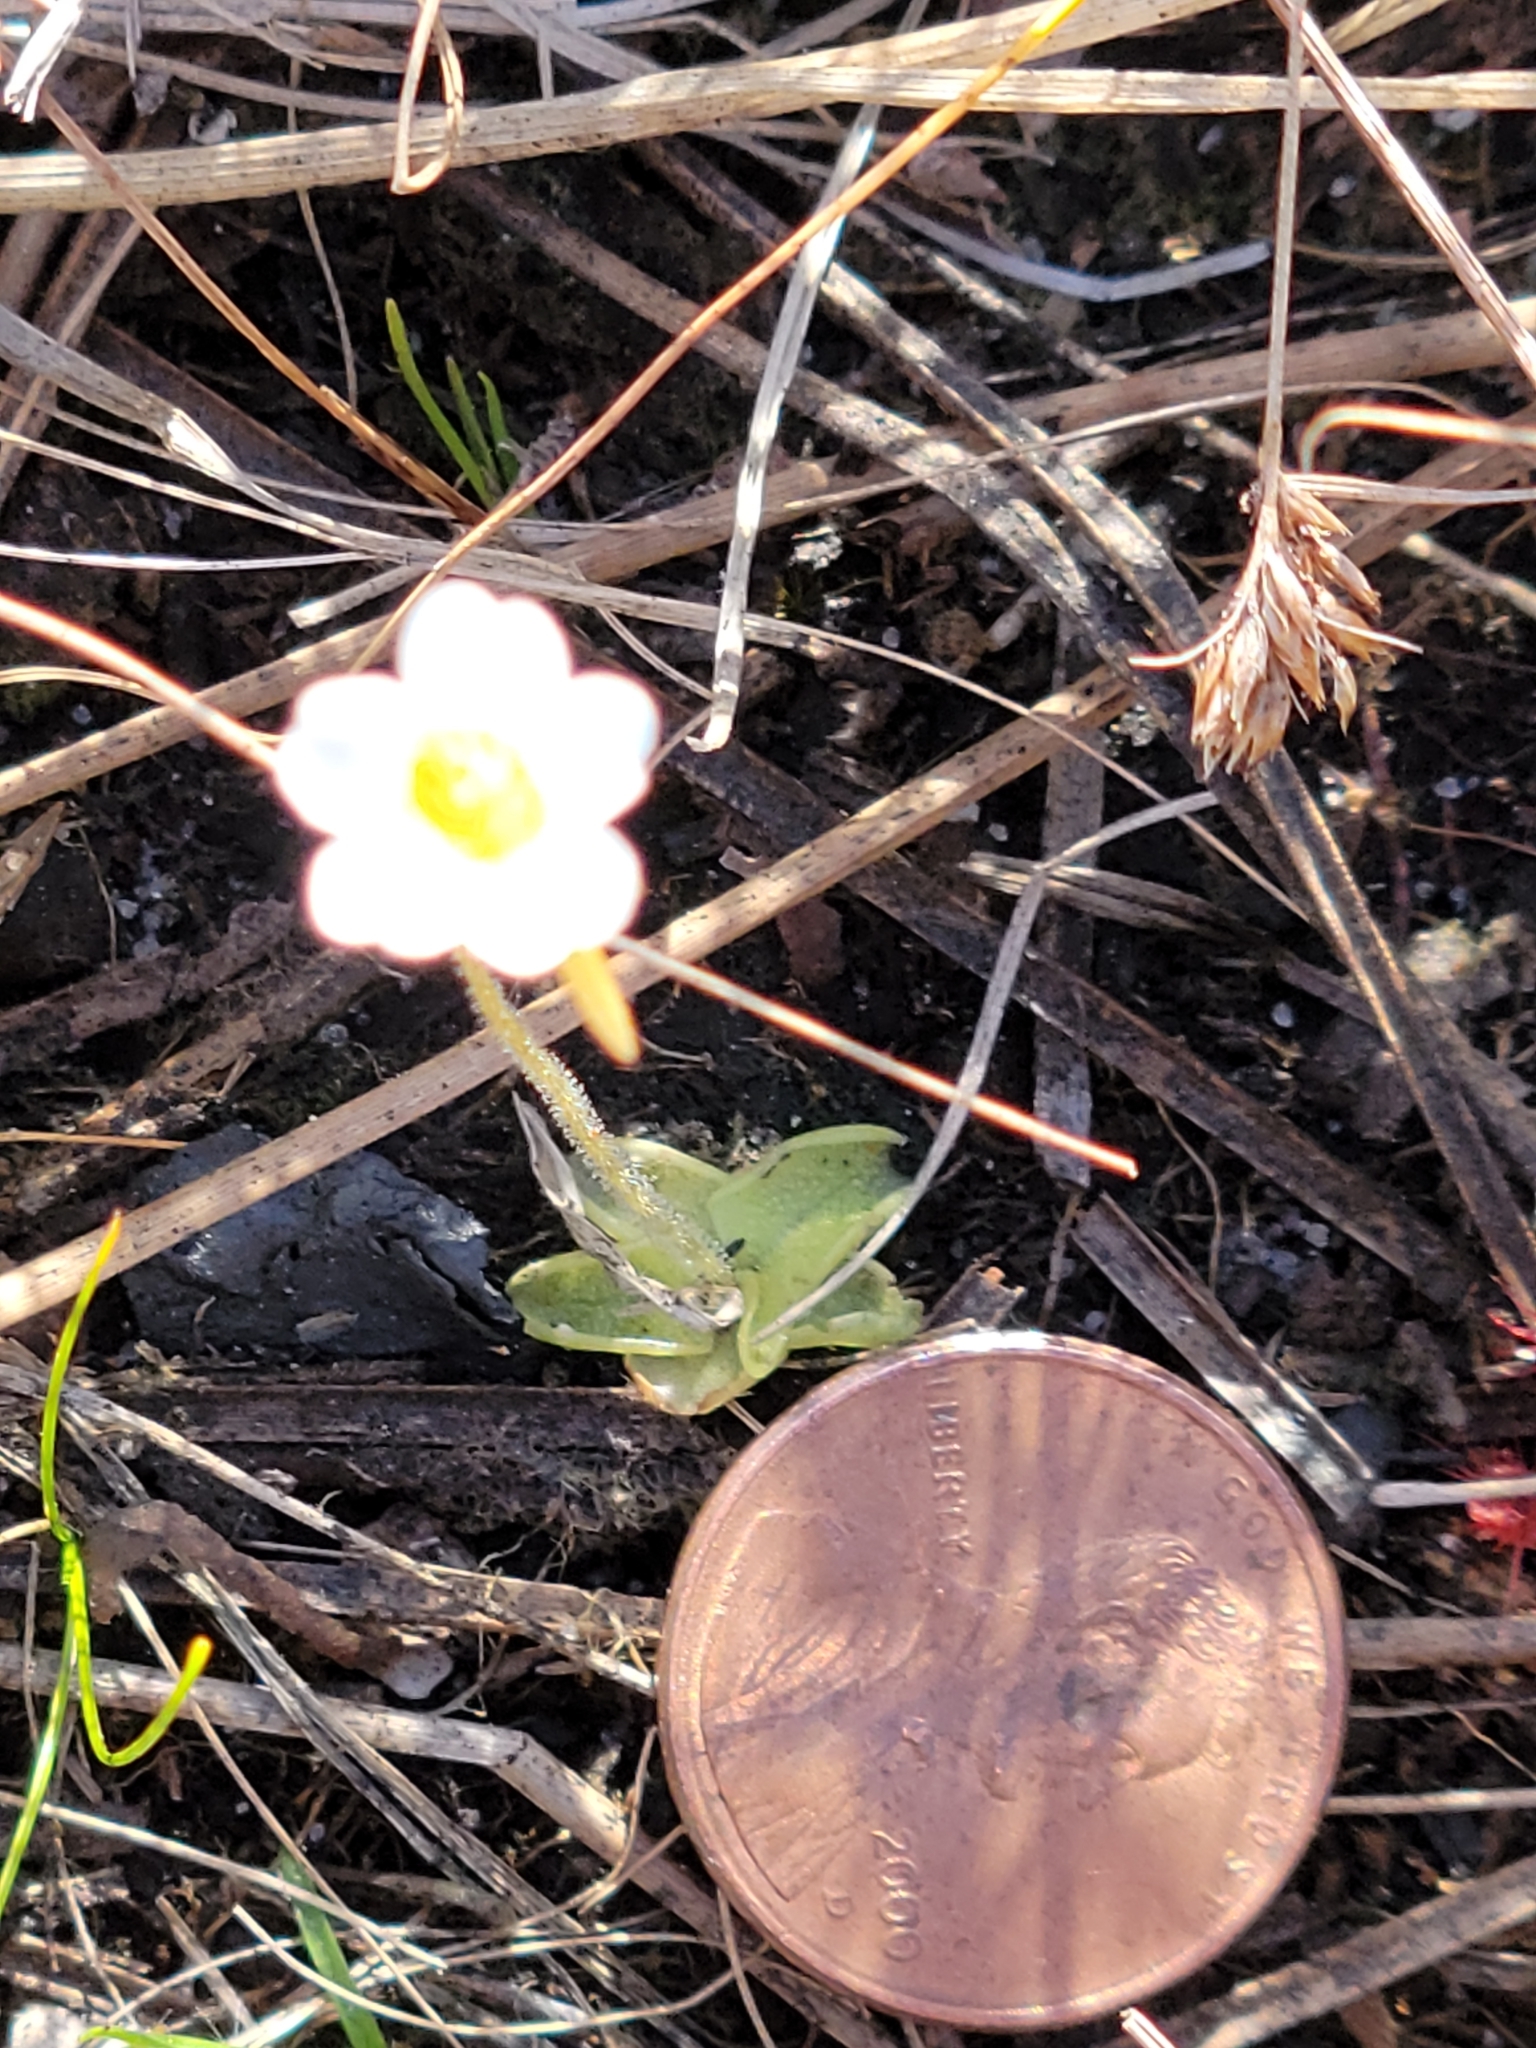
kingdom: Plantae
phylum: Tracheophyta
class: Magnoliopsida
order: Lamiales
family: Lentibulariaceae
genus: Pinguicula
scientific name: Pinguicula pumila
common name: Small butterwort
